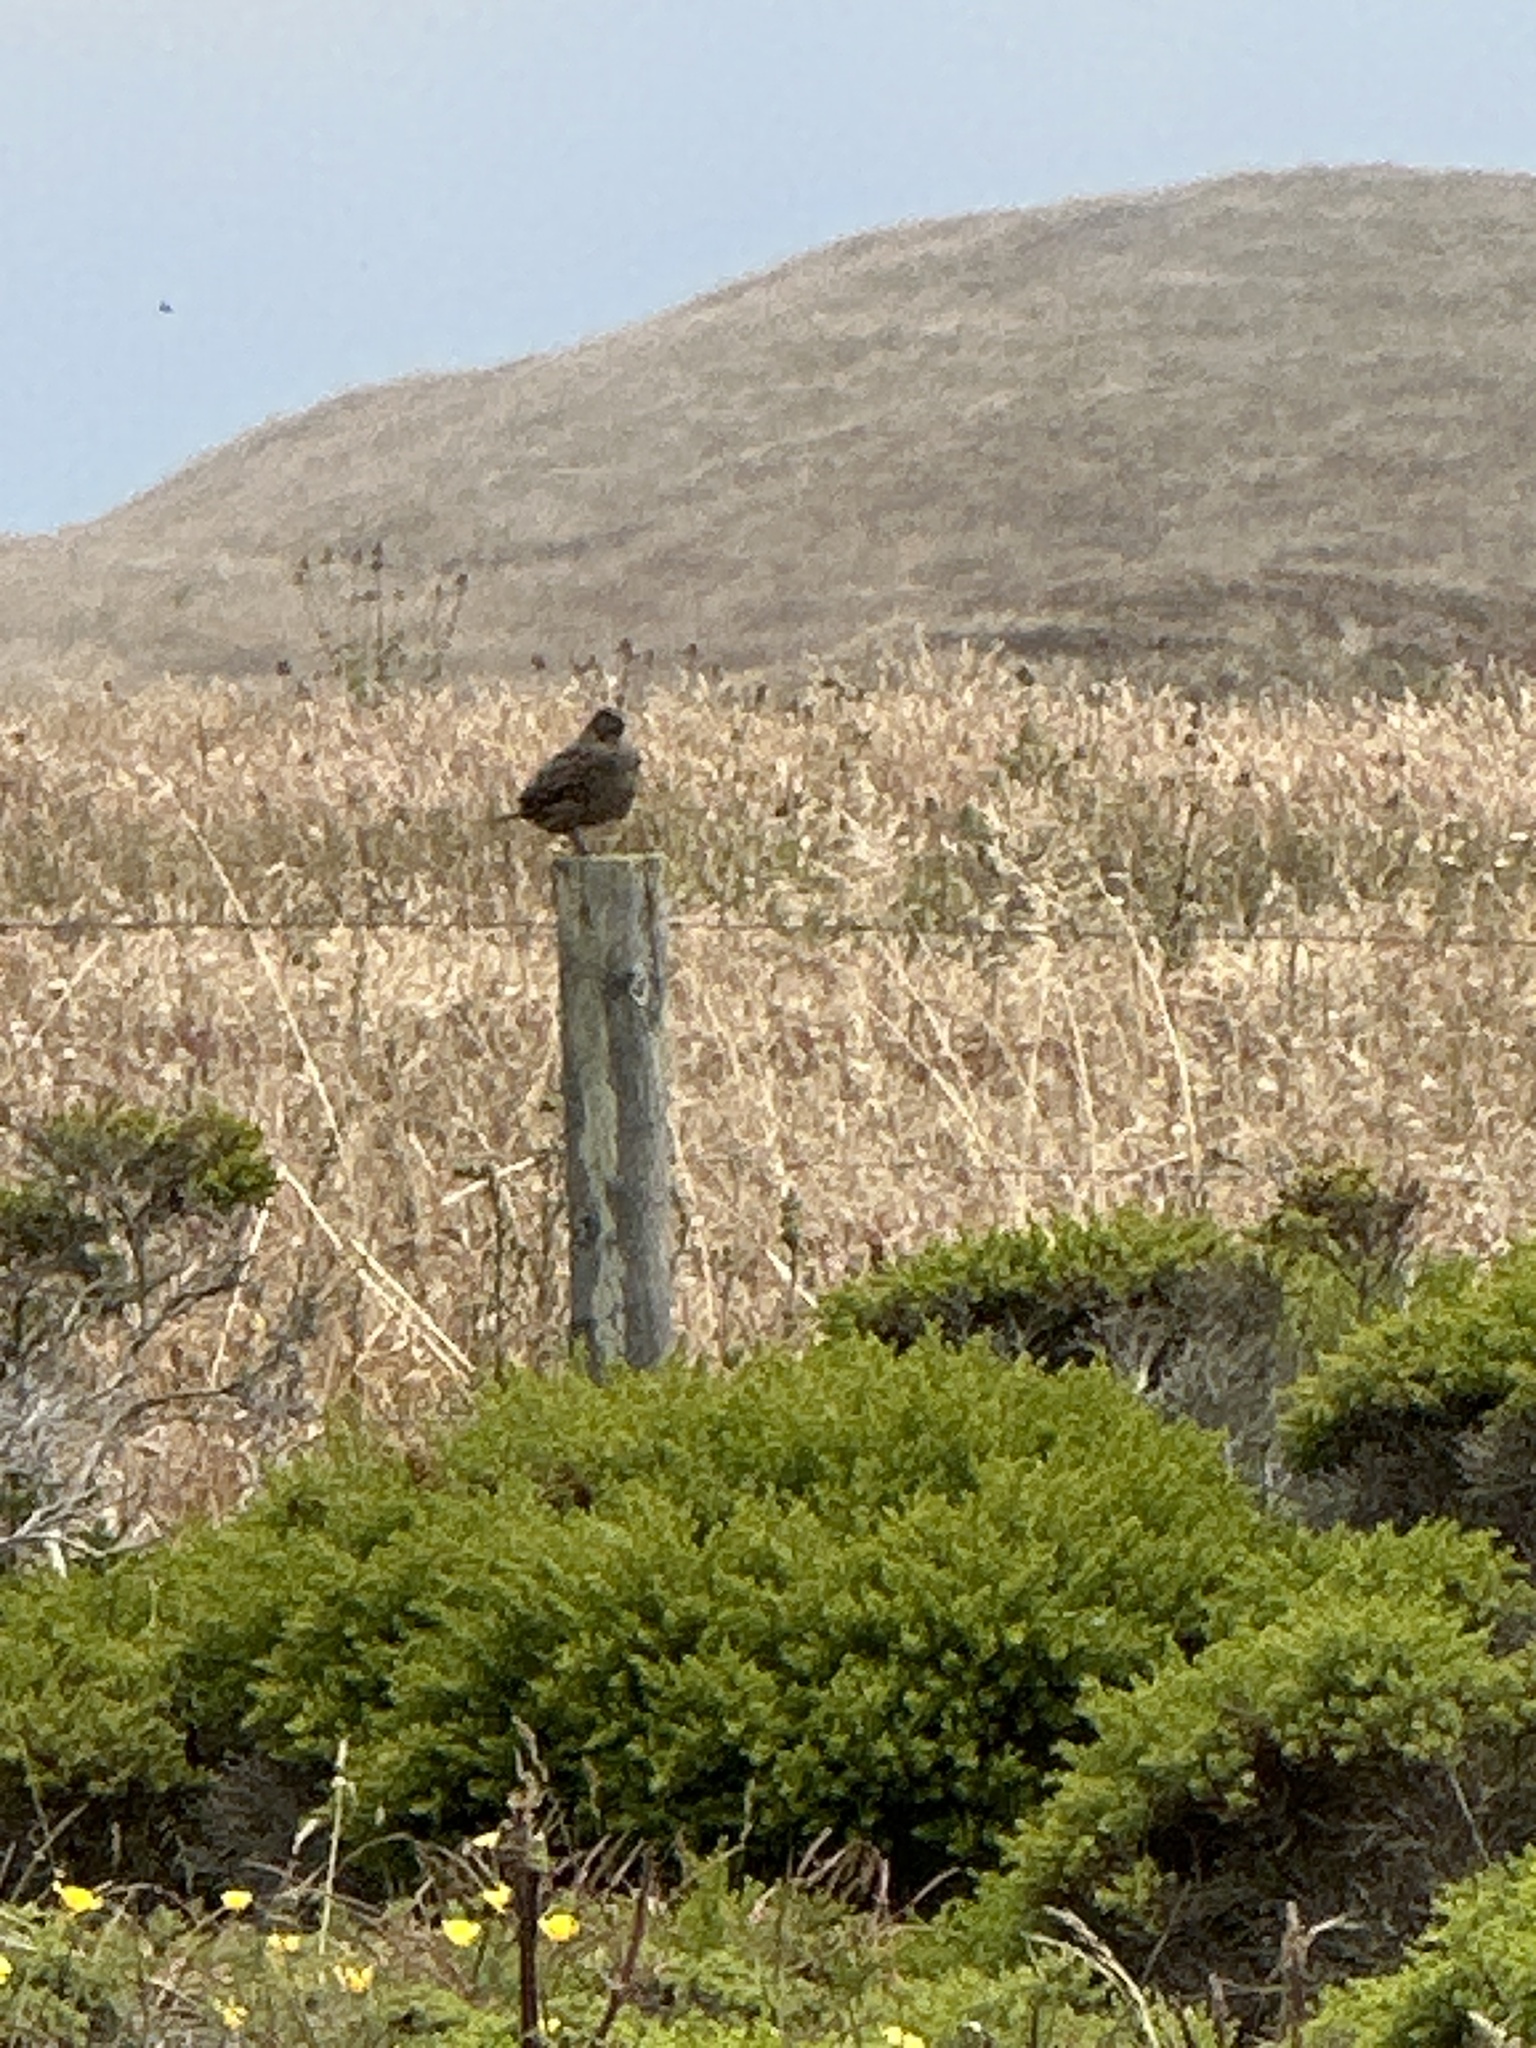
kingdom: Animalia
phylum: Chordata
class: Aves
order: Galliformes
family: Odontophoridae
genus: Callipepla
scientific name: Callipepla californica
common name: California quail
